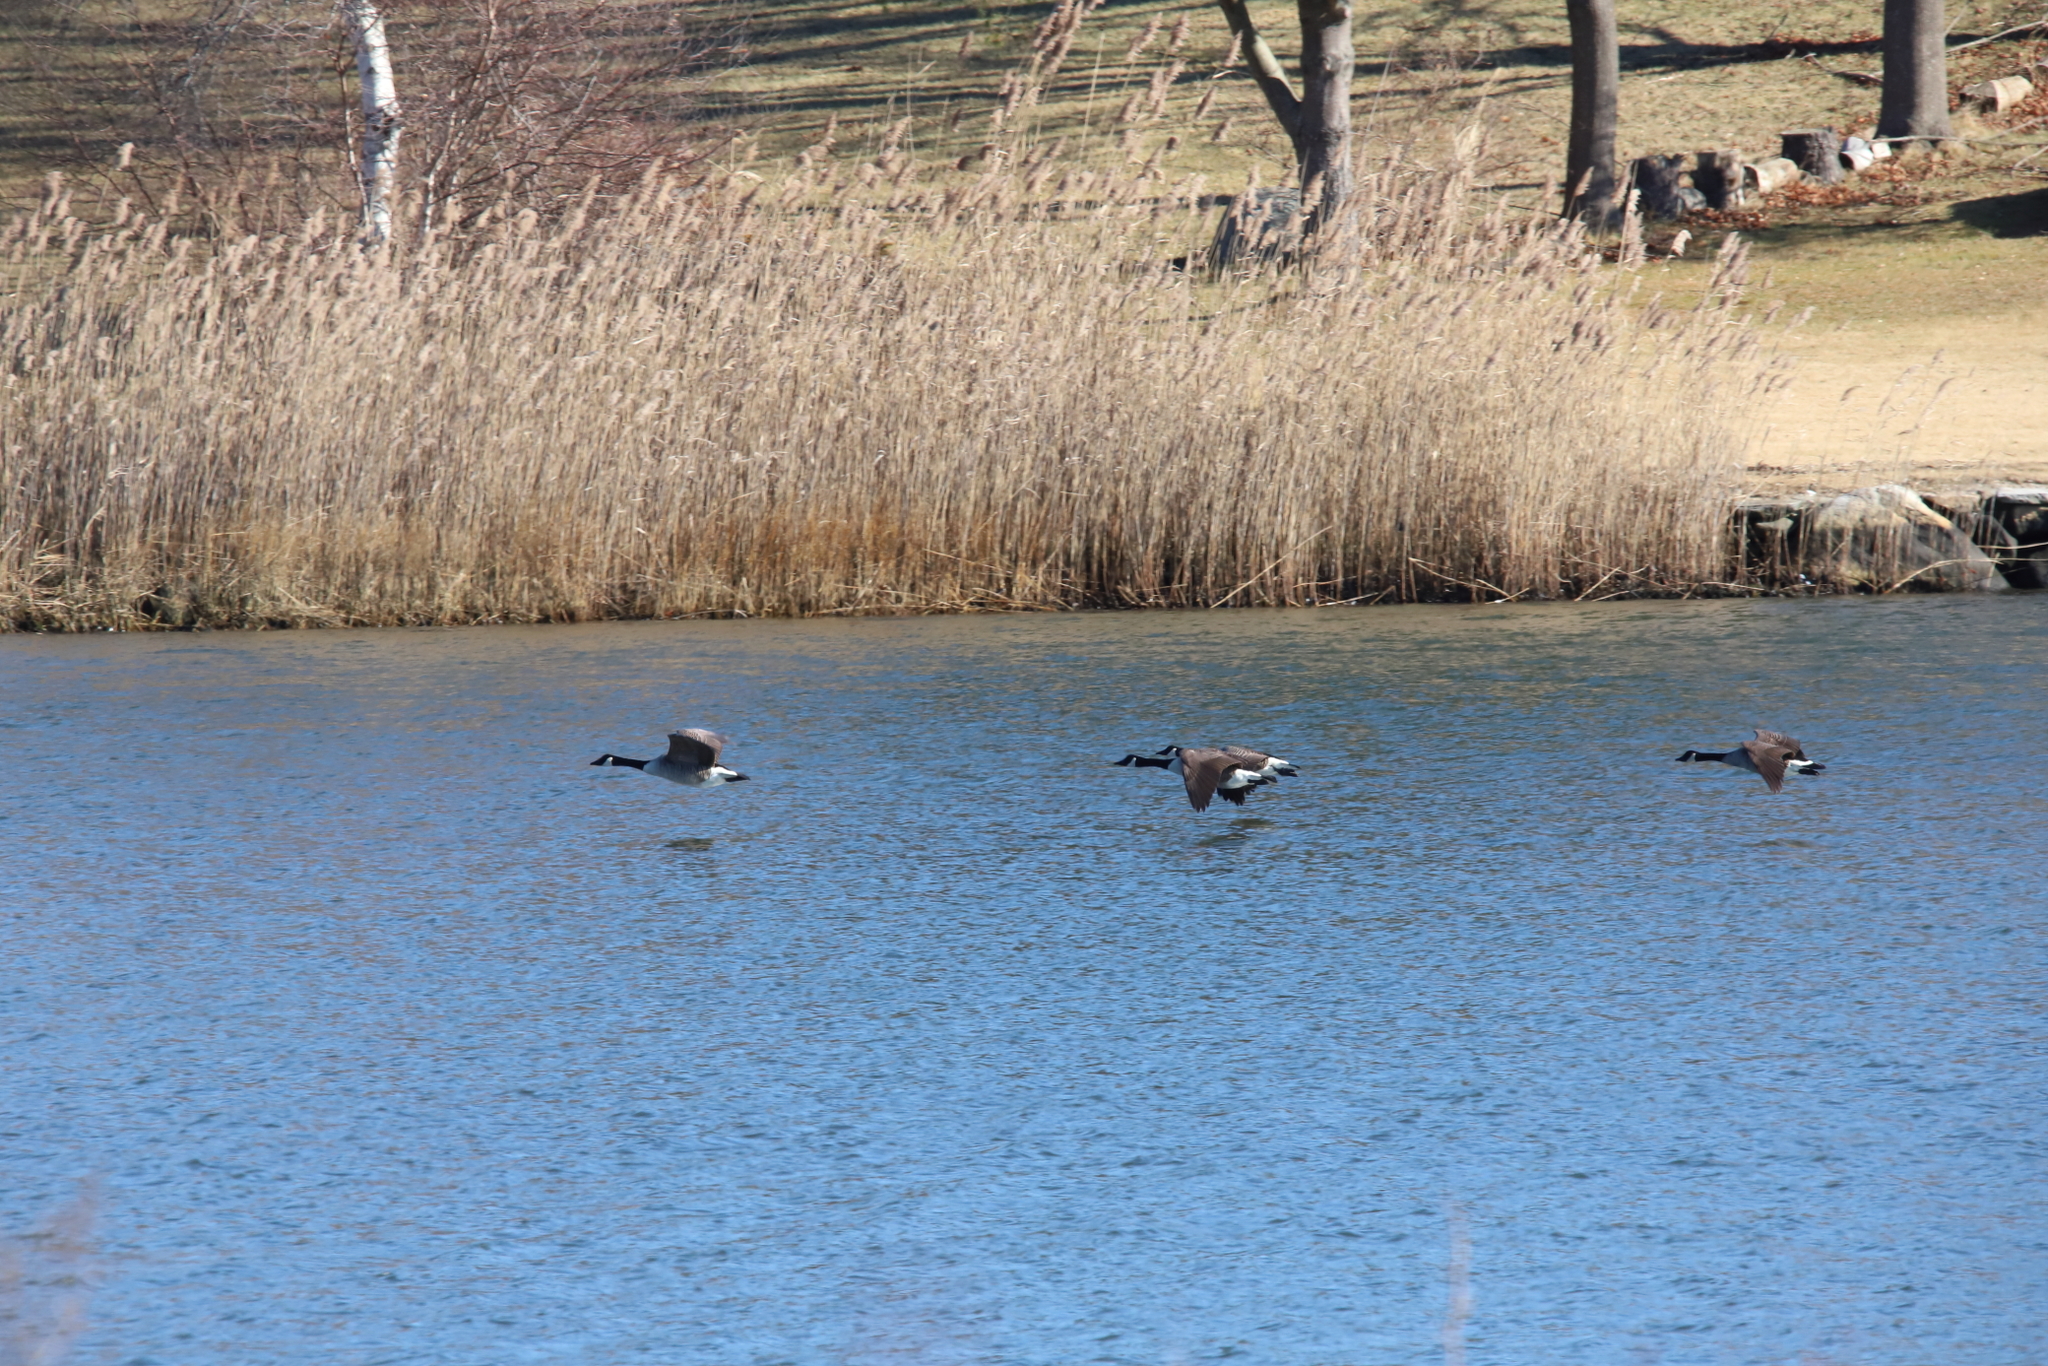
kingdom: Animalia
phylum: Chordata
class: Aves
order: Anseriformes
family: Anatidae
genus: Branta
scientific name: Branta canadensis
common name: Canada goose
